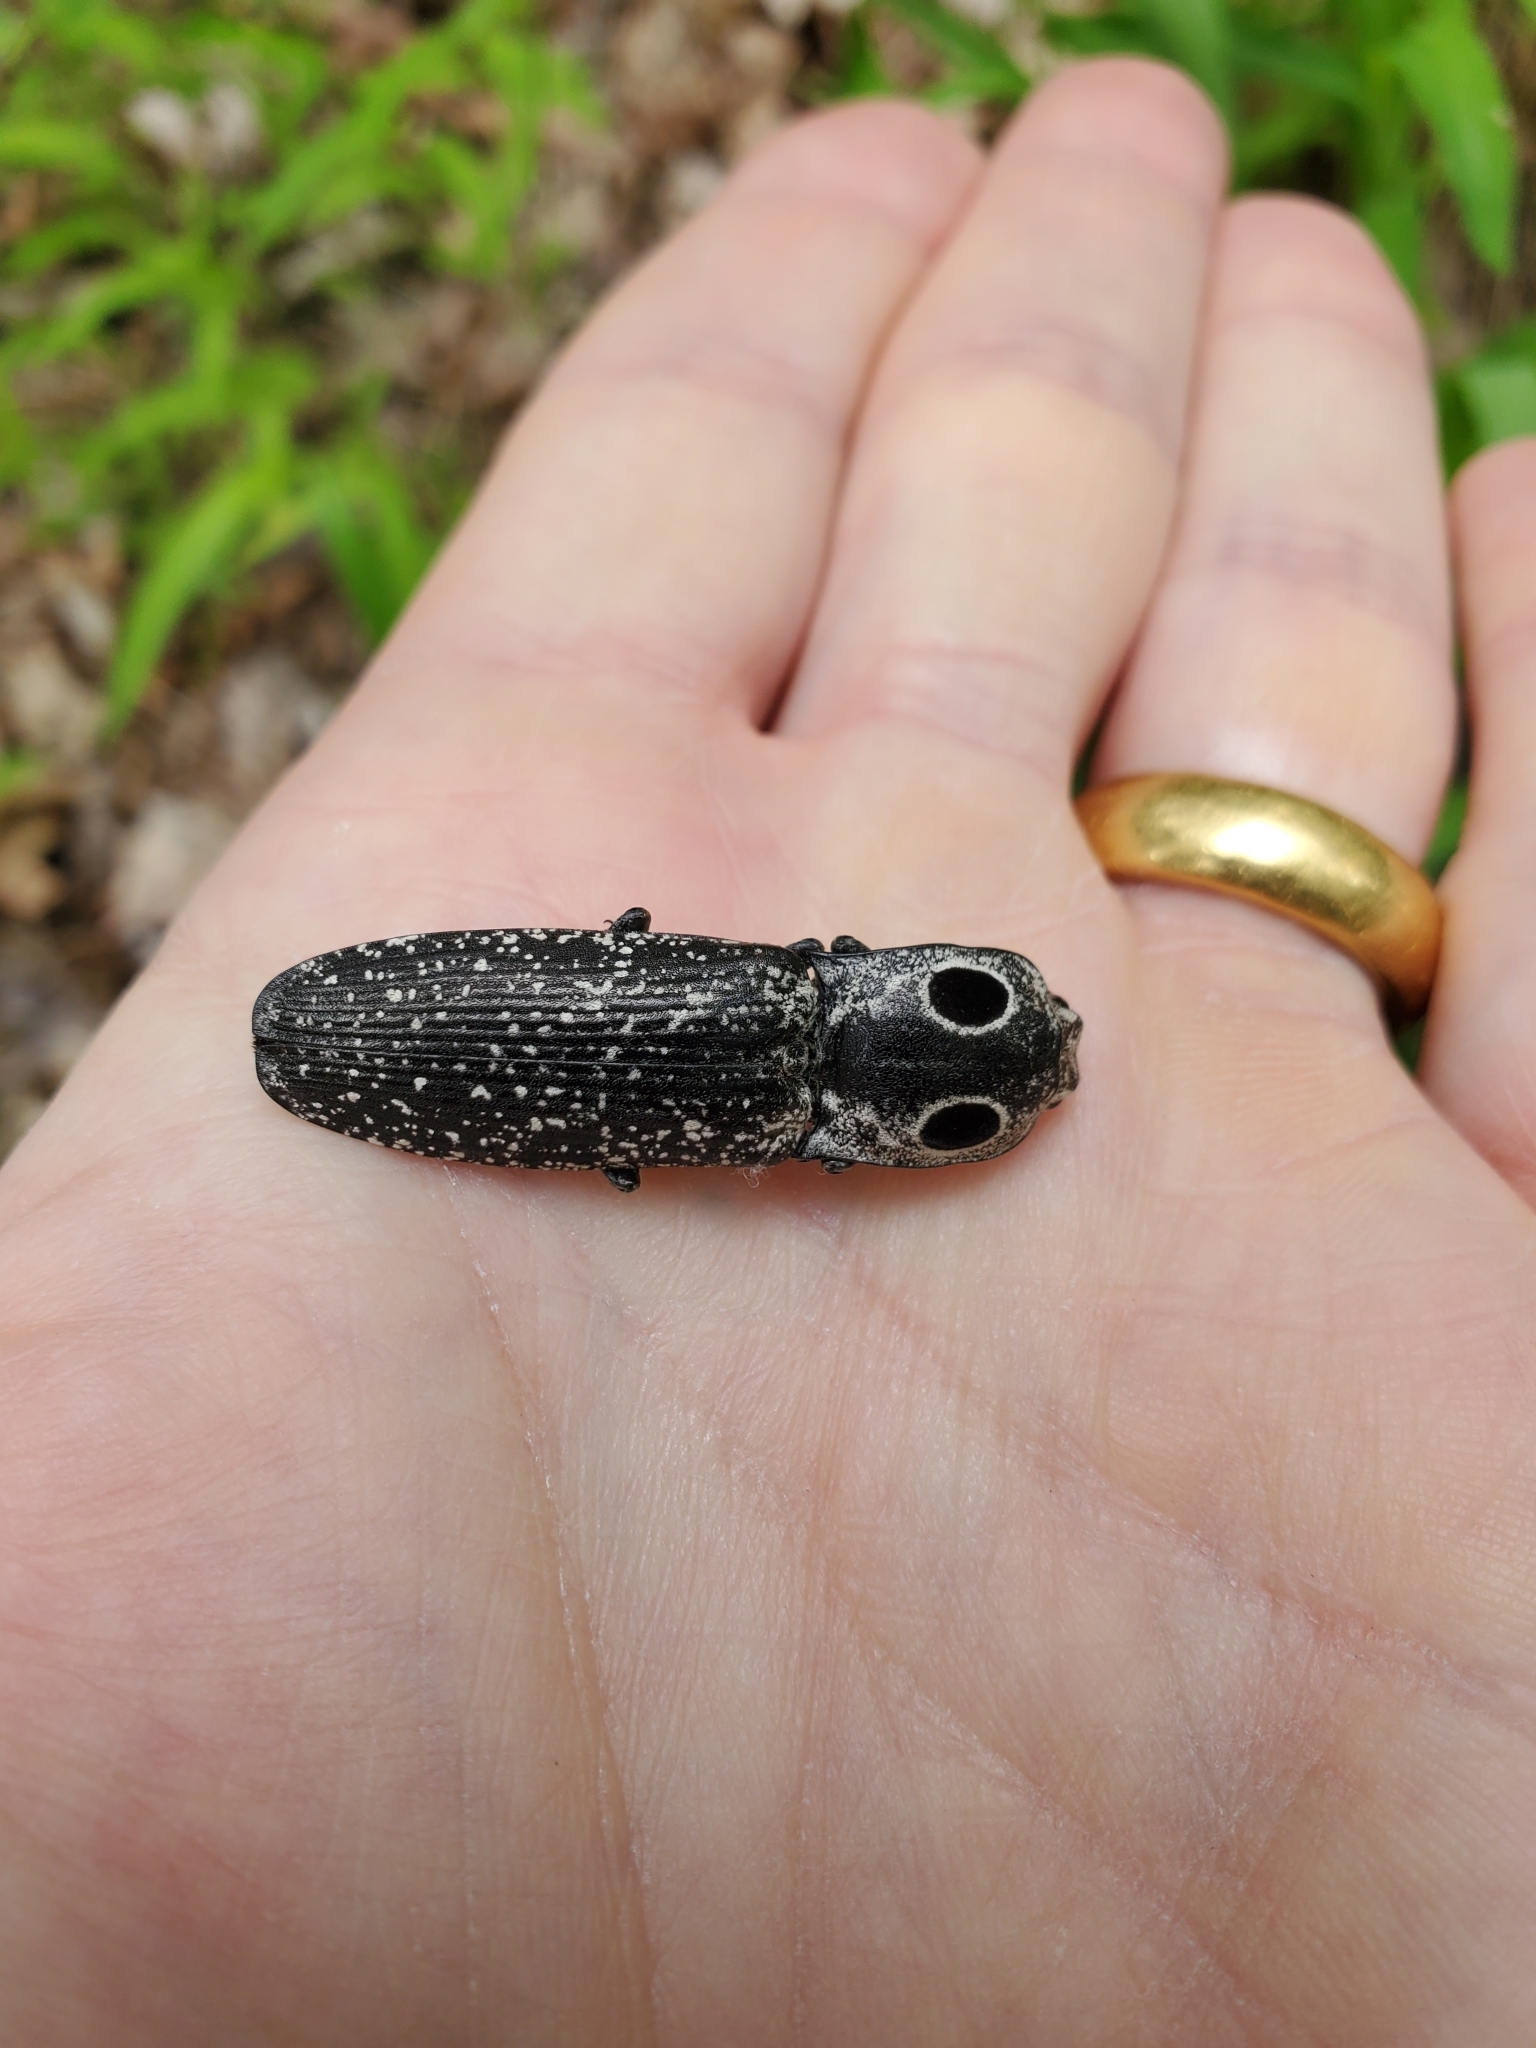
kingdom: Animalia
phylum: Arthropoda
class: Insecta
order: Coleoptera
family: Elateridae
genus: Alaus
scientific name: Alaus oculatus
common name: Eastern eyed click beetle
